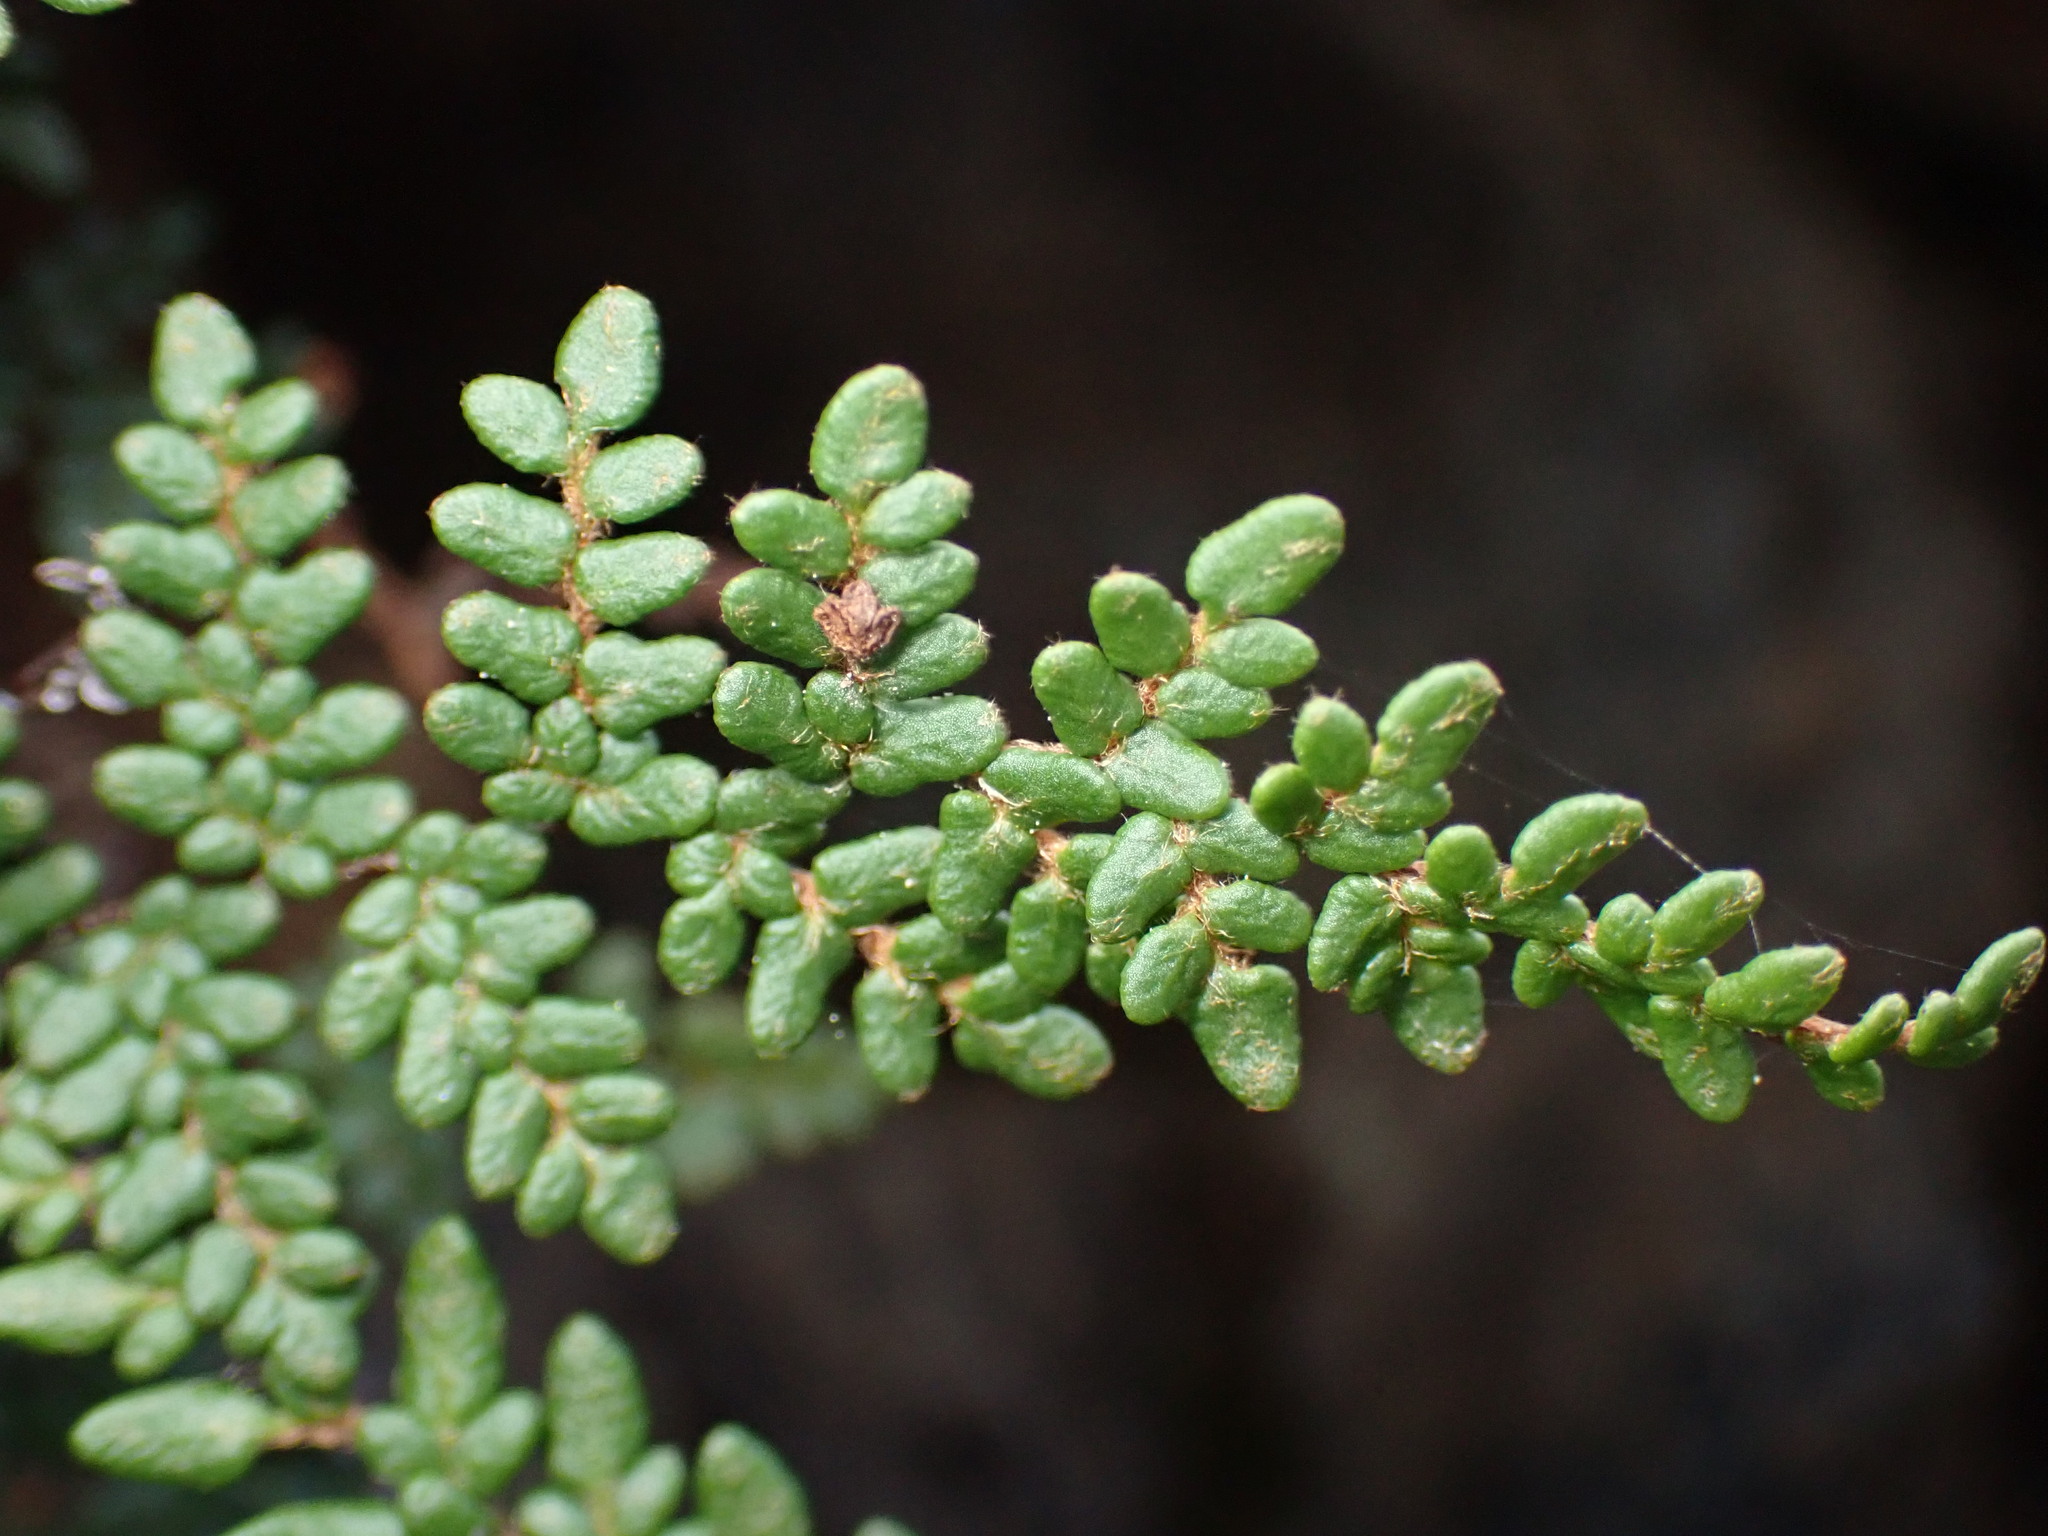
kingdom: Plantae
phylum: Tracheophyta
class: Polypodiopsida
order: Polypodiales
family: Pteridaceae
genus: Myriopteris
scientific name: Myriopteris gracillima
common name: Lace fern
